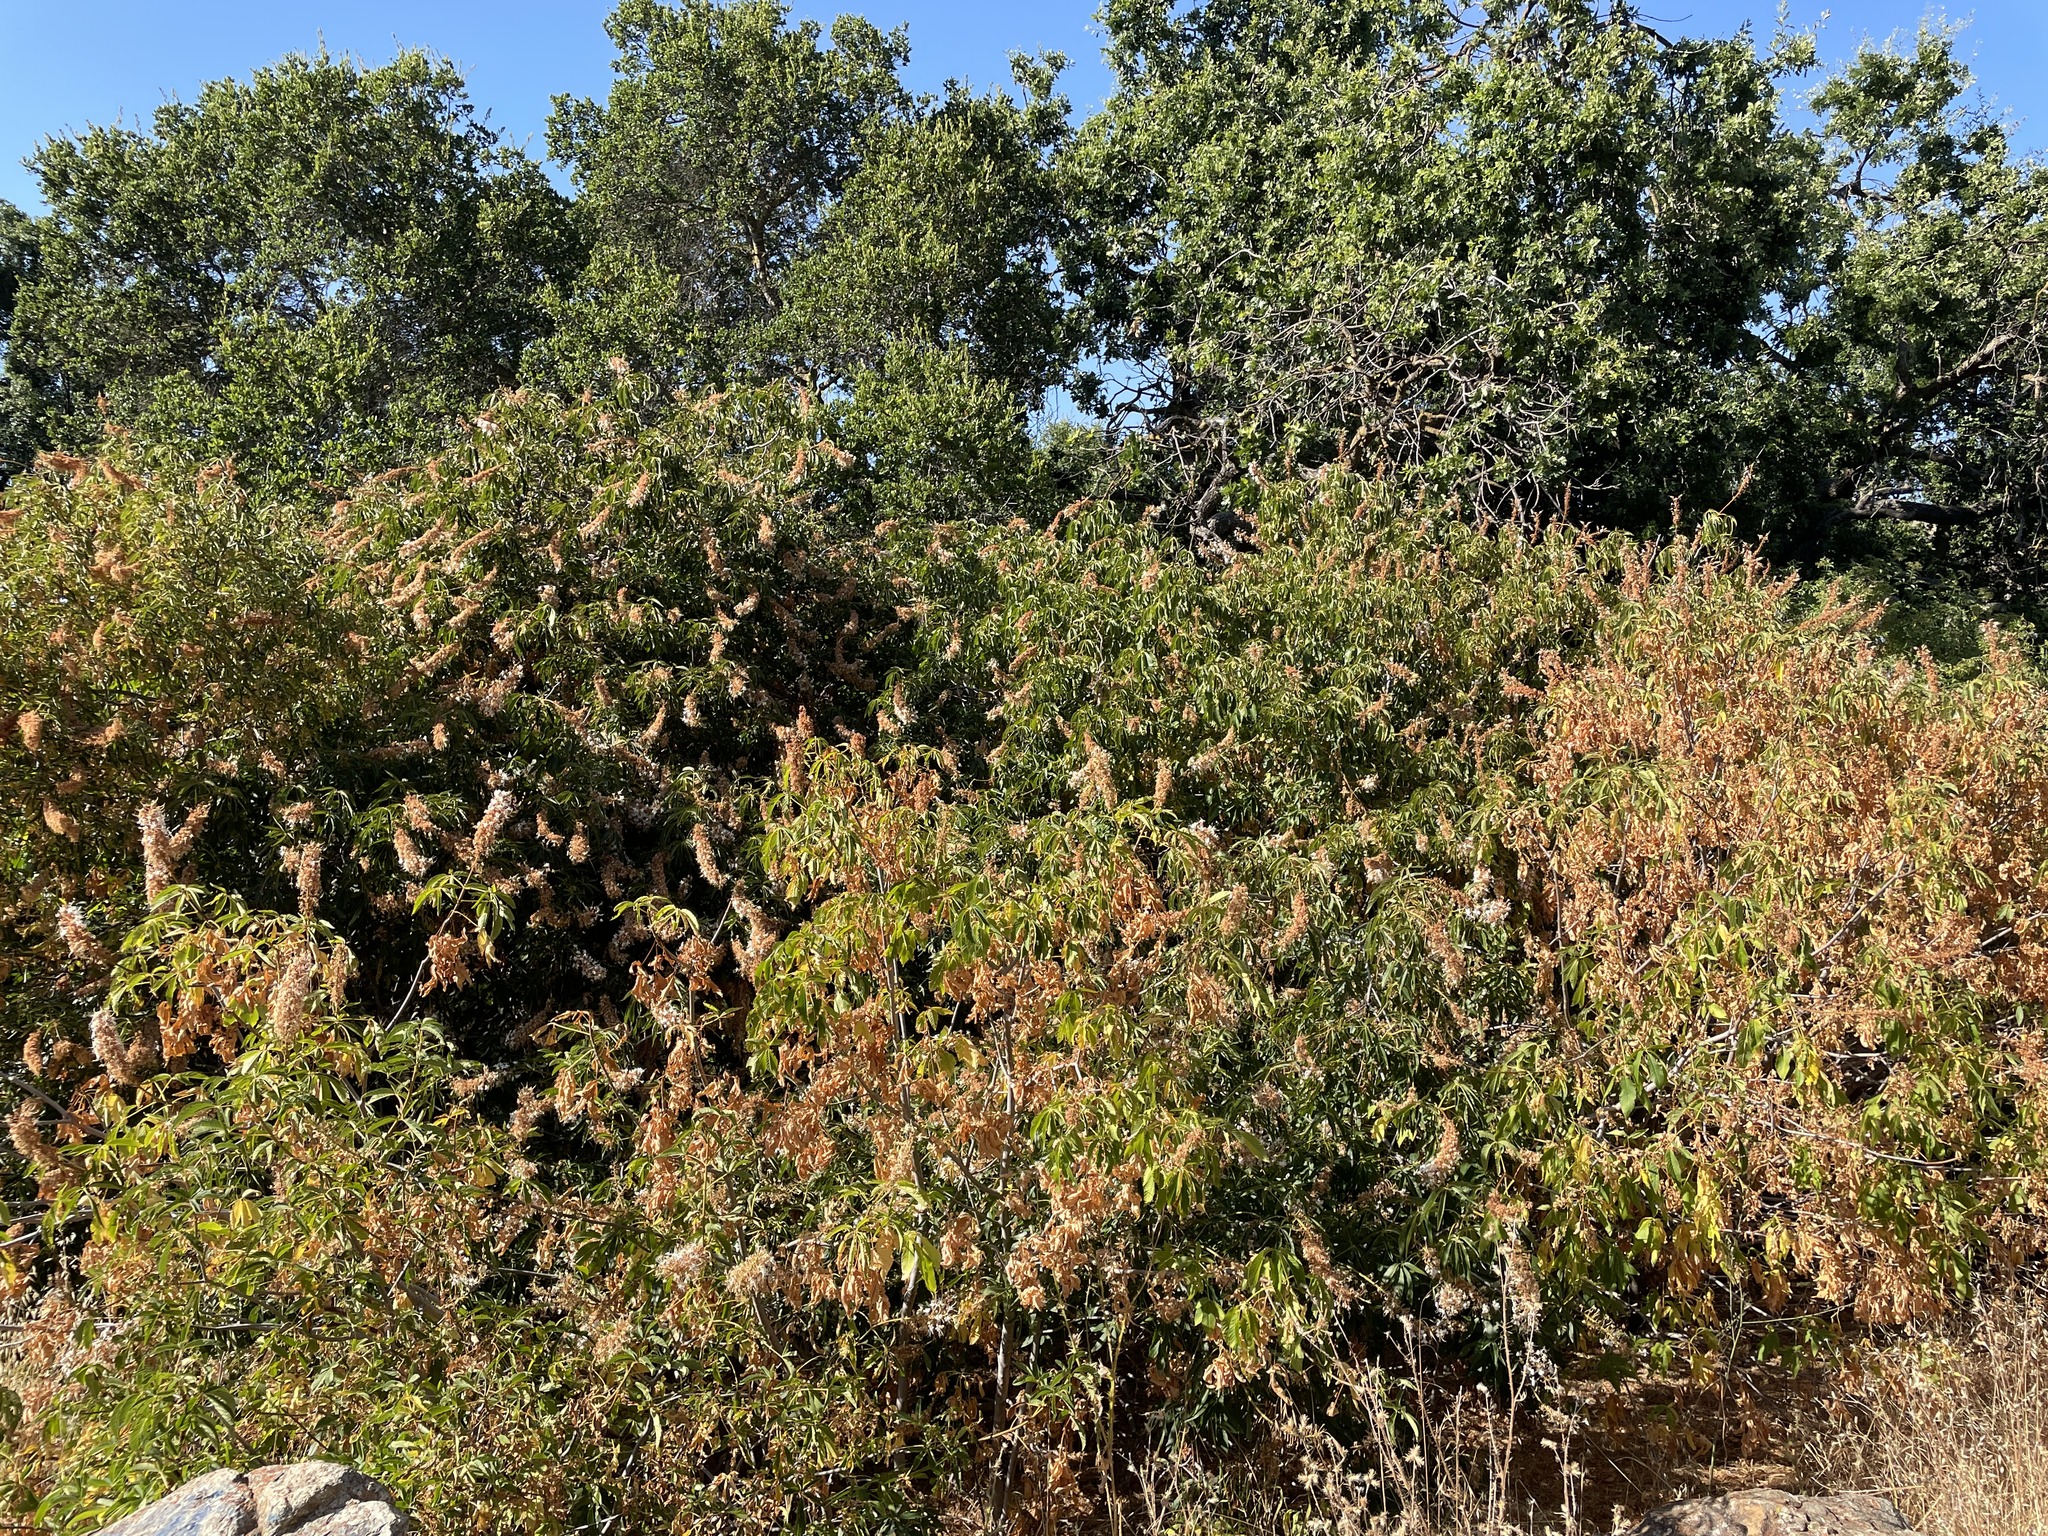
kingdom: Plantae
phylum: Tracheophyta
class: Magnoliopsida
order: Sapindales
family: Sapindaceae
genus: Aesculus
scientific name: Aesculus californica
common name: California buckeye
